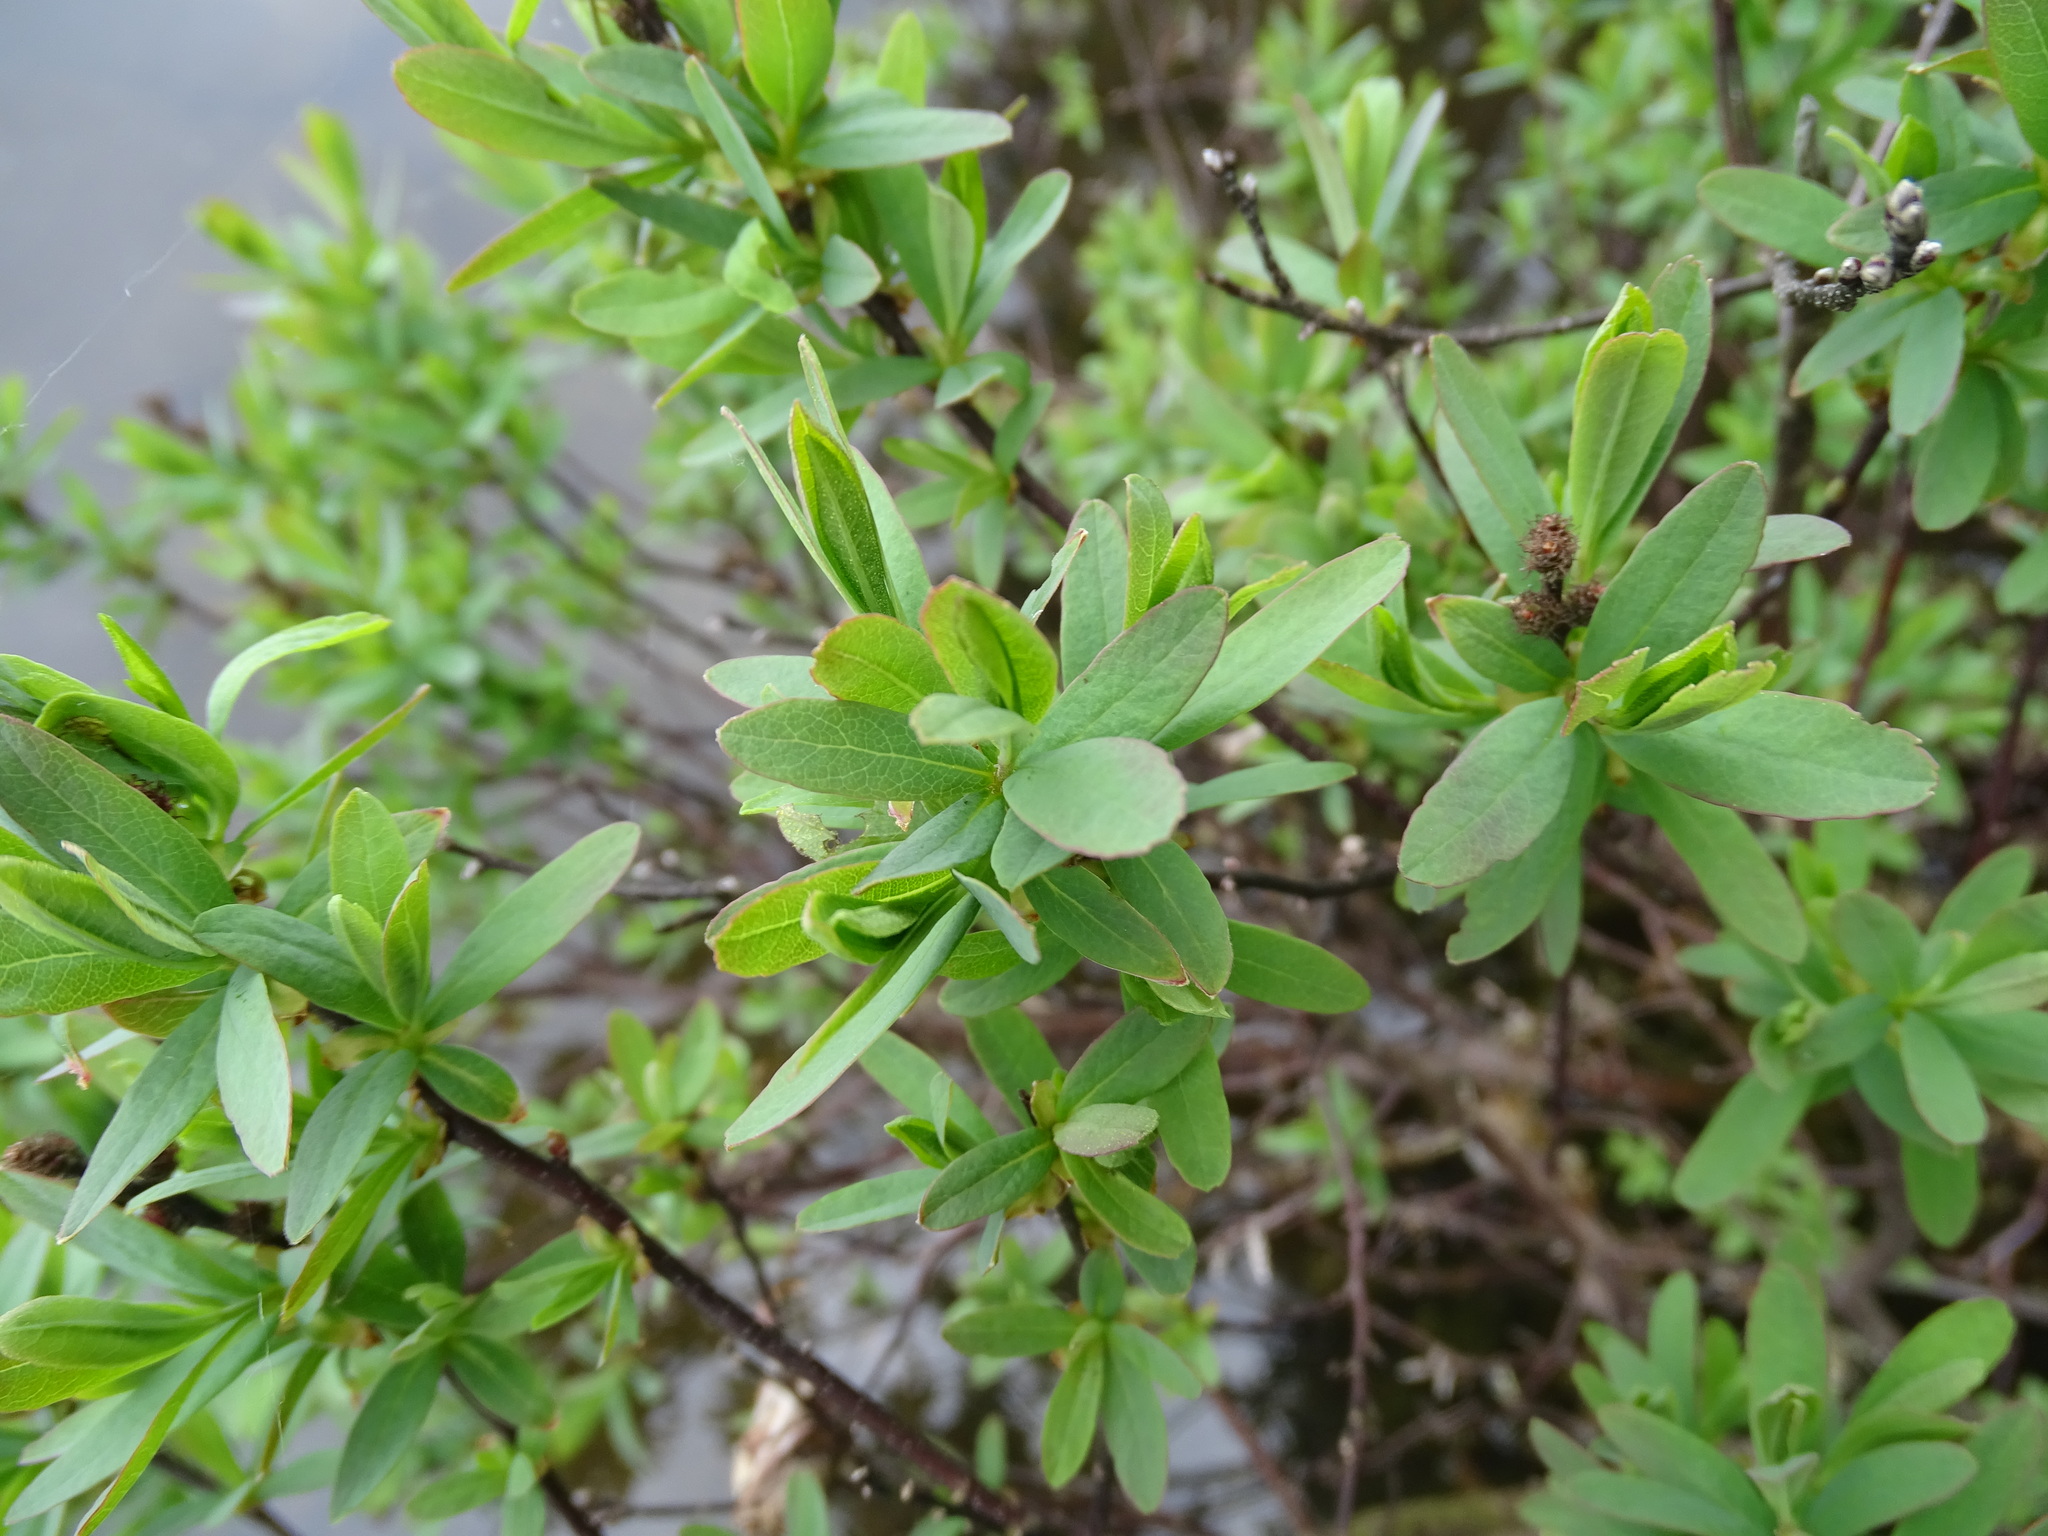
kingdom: Plantae
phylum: Tracheophyta
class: Magnoliopsida
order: Fagales
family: Myricaceae
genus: Myrica
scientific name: Myrica gale
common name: Sweet gale
